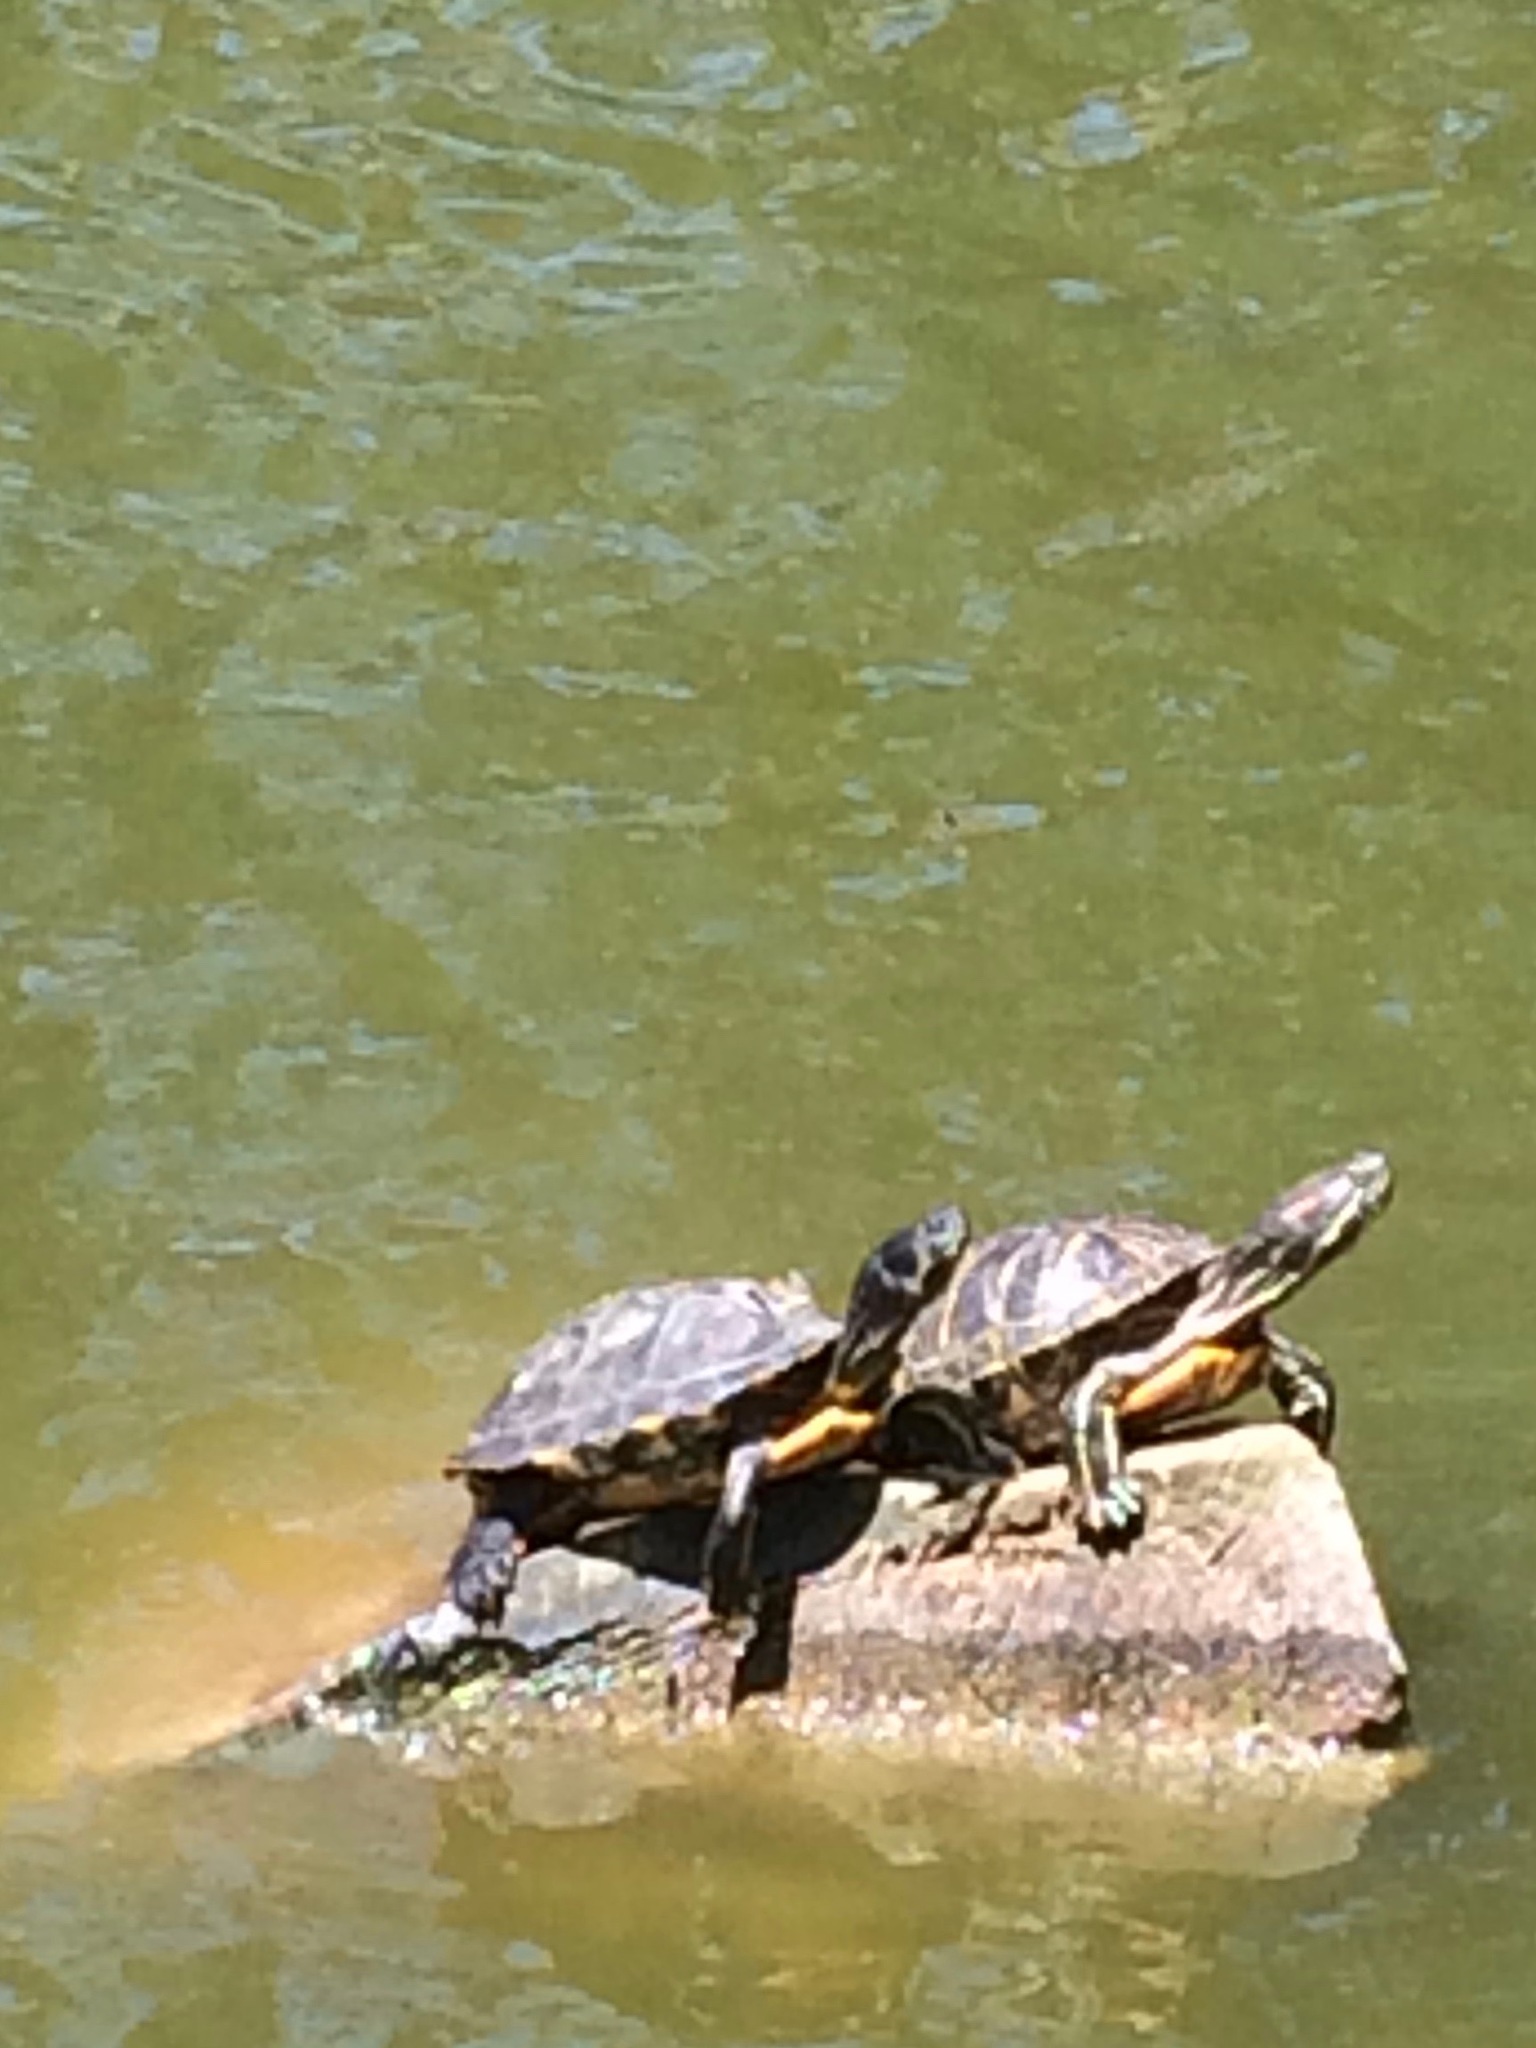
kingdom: Animalia
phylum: Chordata
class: Testudines
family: Emydidae
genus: Trachemys
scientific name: Trachemys scripta
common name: Slider
